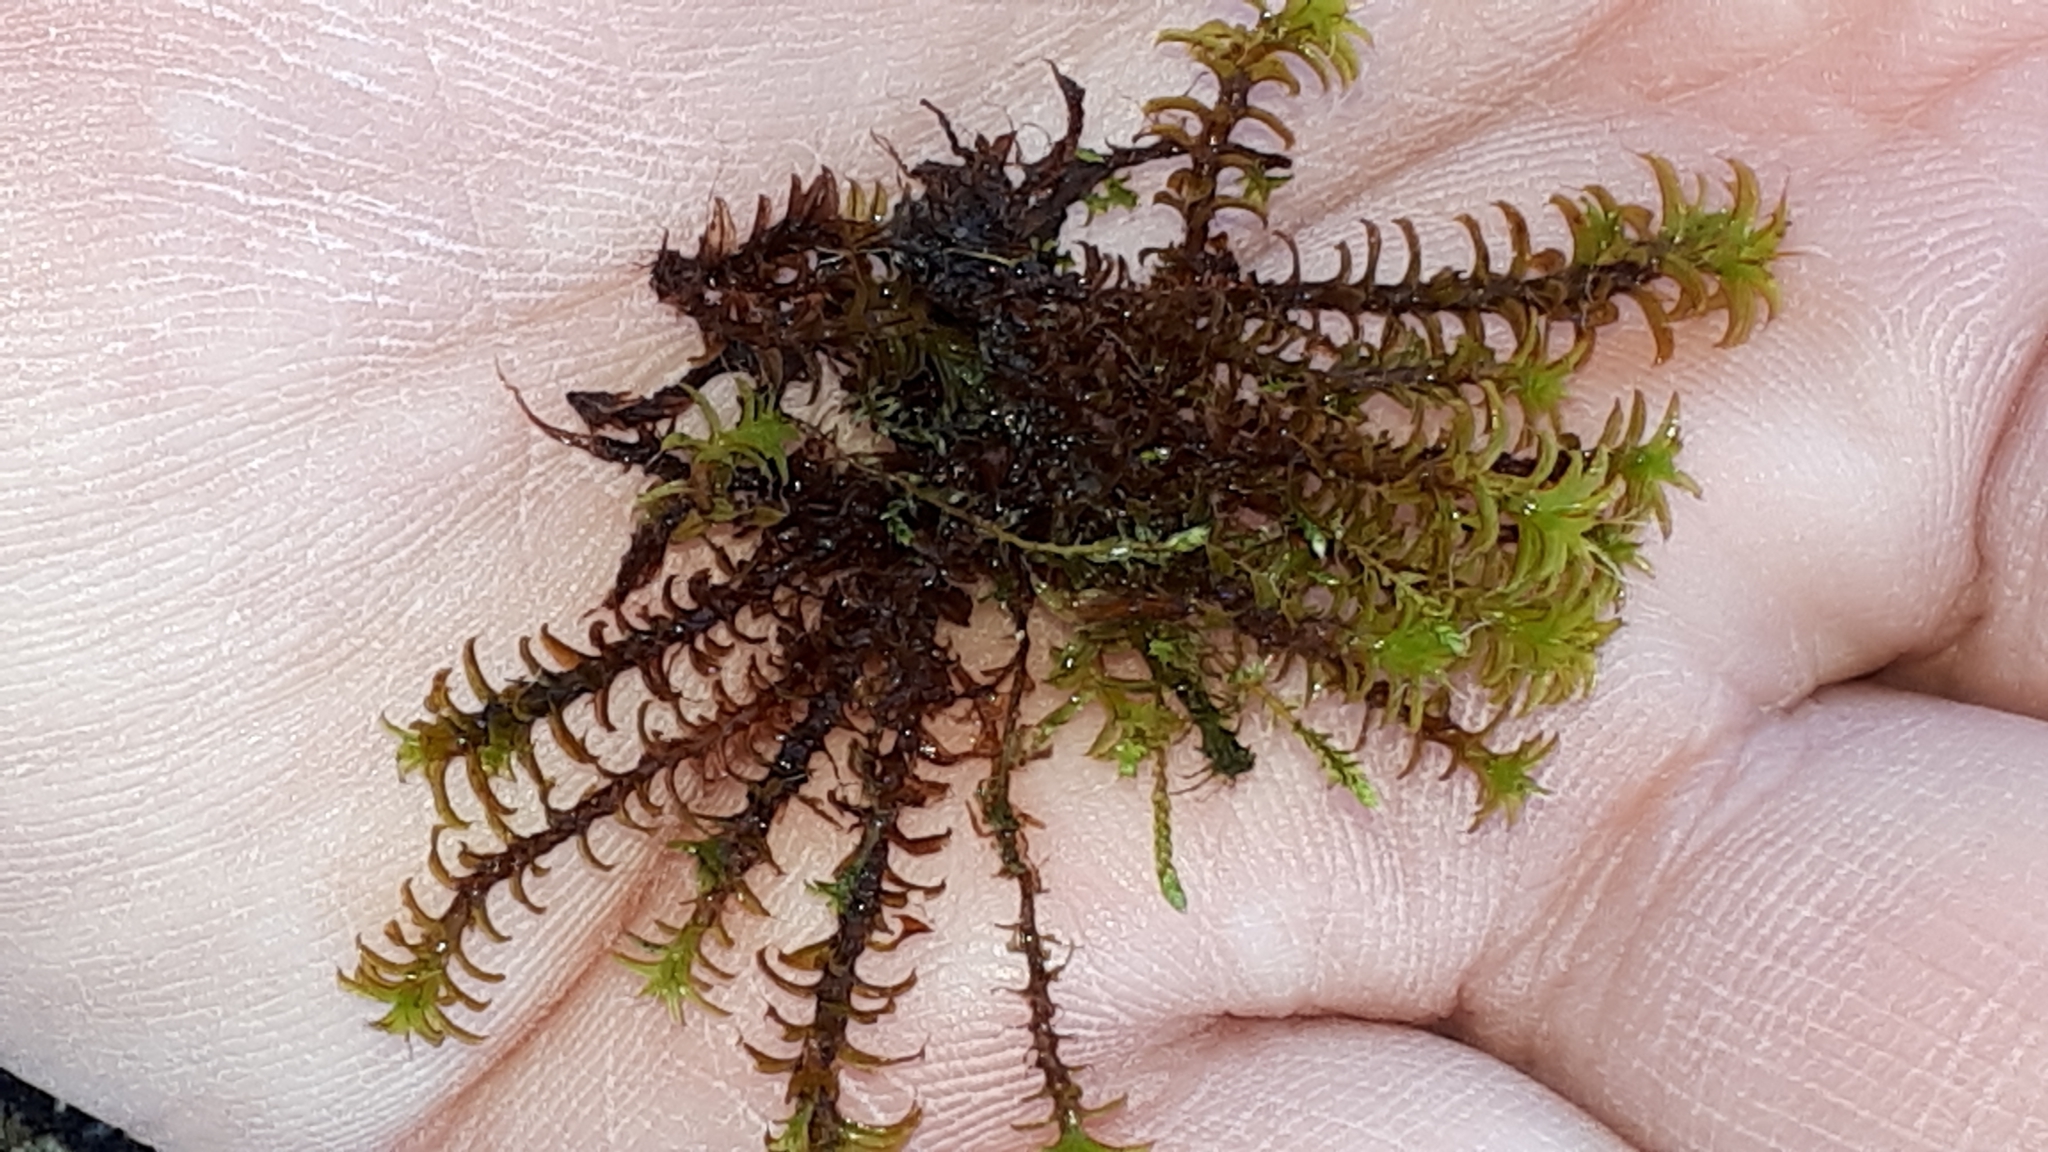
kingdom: Plantae
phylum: Bryophyta
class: Bryopsida
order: Pottiales
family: Pottiaceae
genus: Syntrichia
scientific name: Syntrichia ruralis
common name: Sidewalk screw moss
